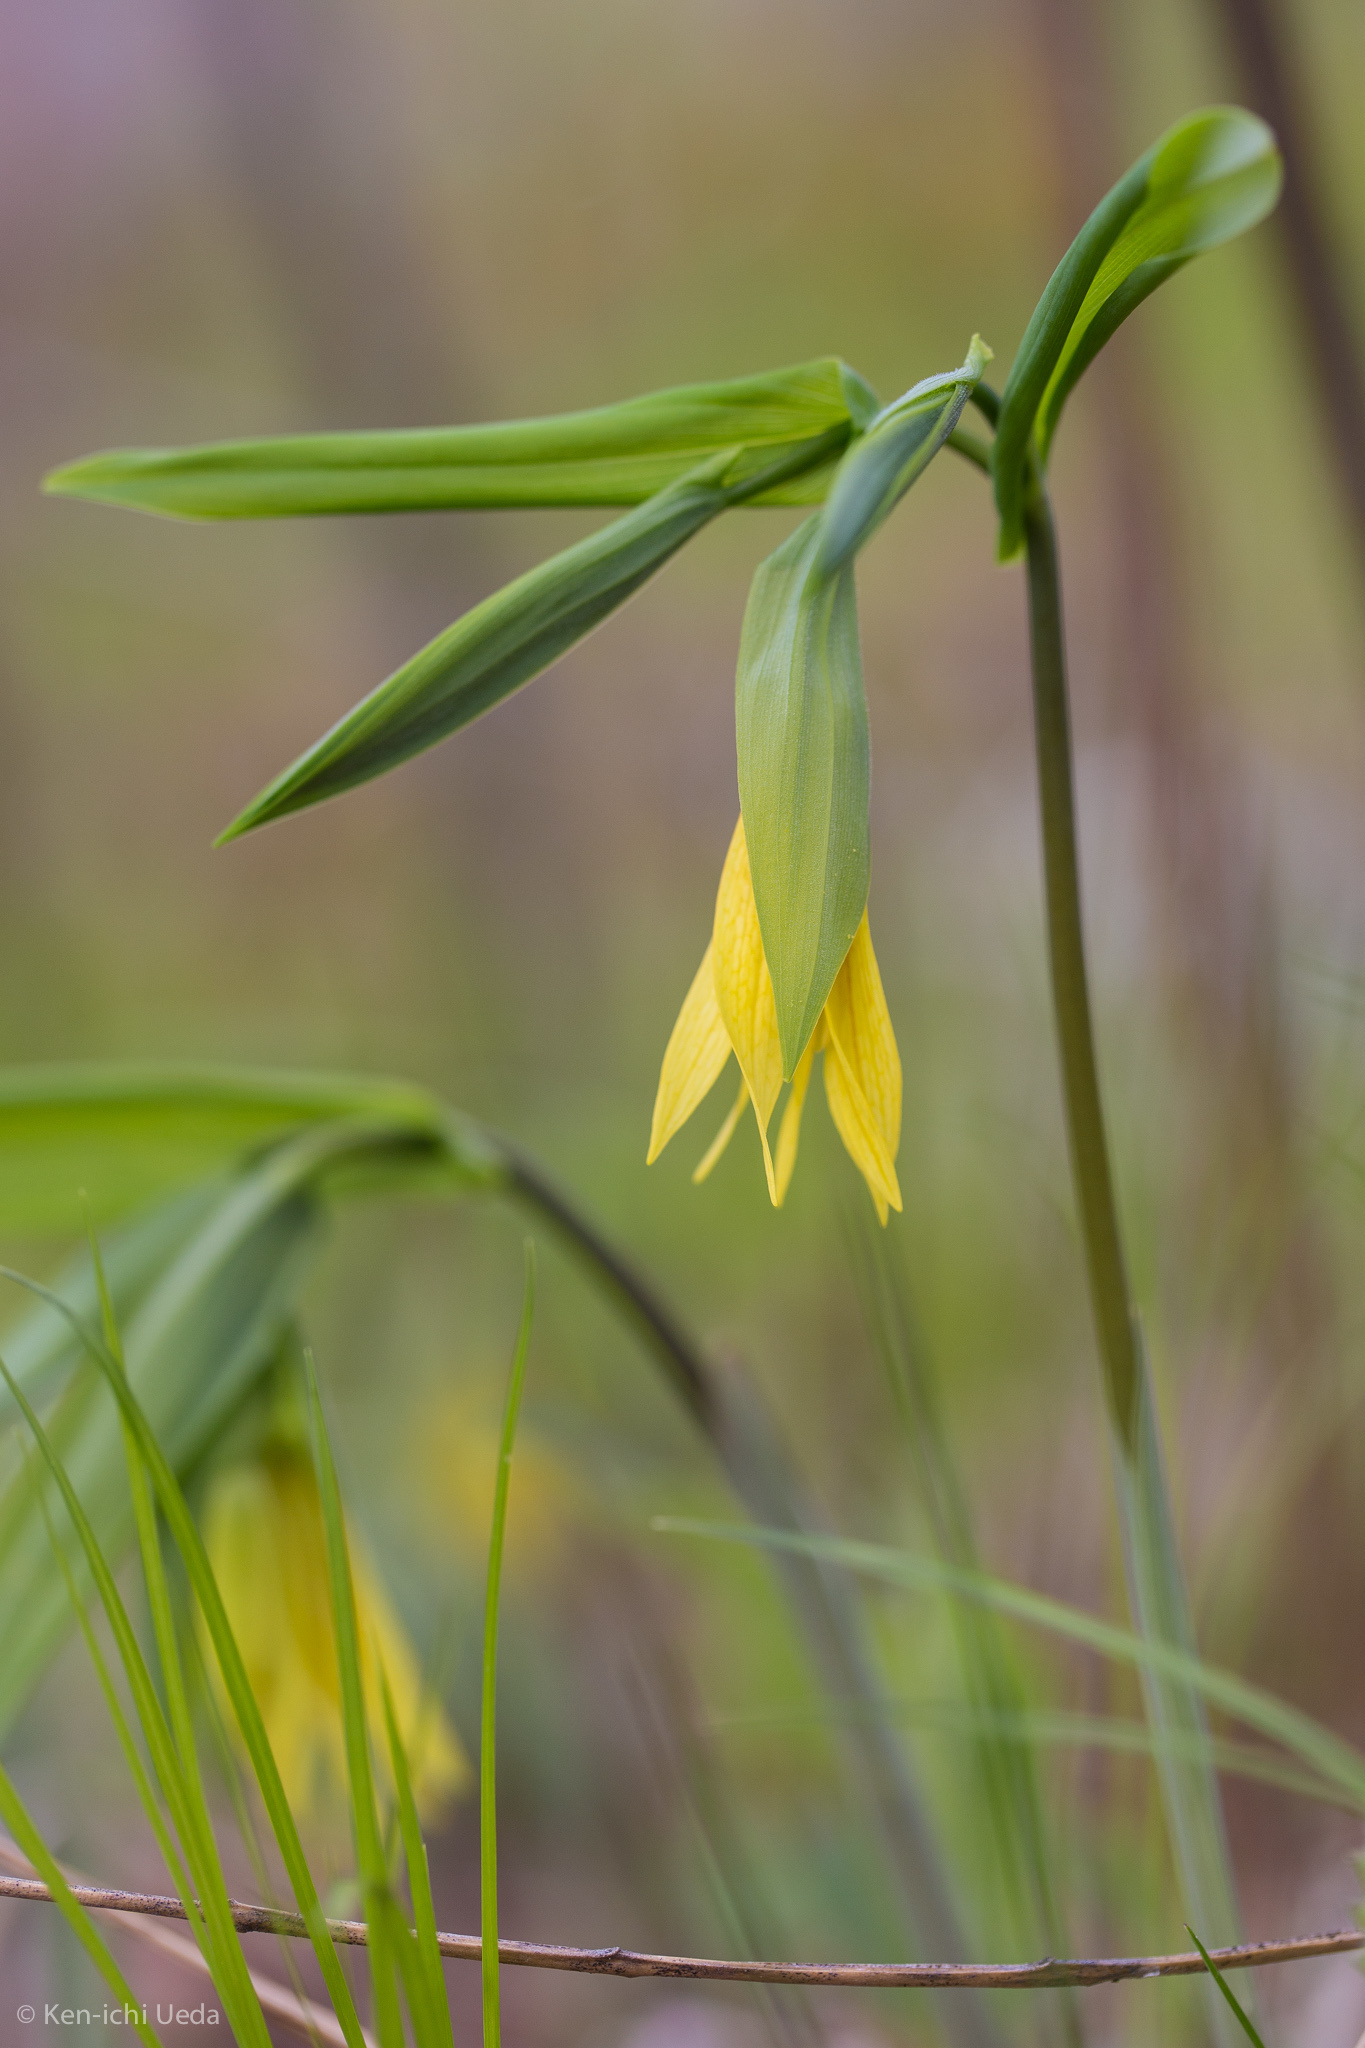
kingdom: Plantae
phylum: Tracheophyta
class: Liliopsida
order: Liliales
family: Colchicaceae
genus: Uvularia
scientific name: Uvularia grandiflora
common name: Bellwort
